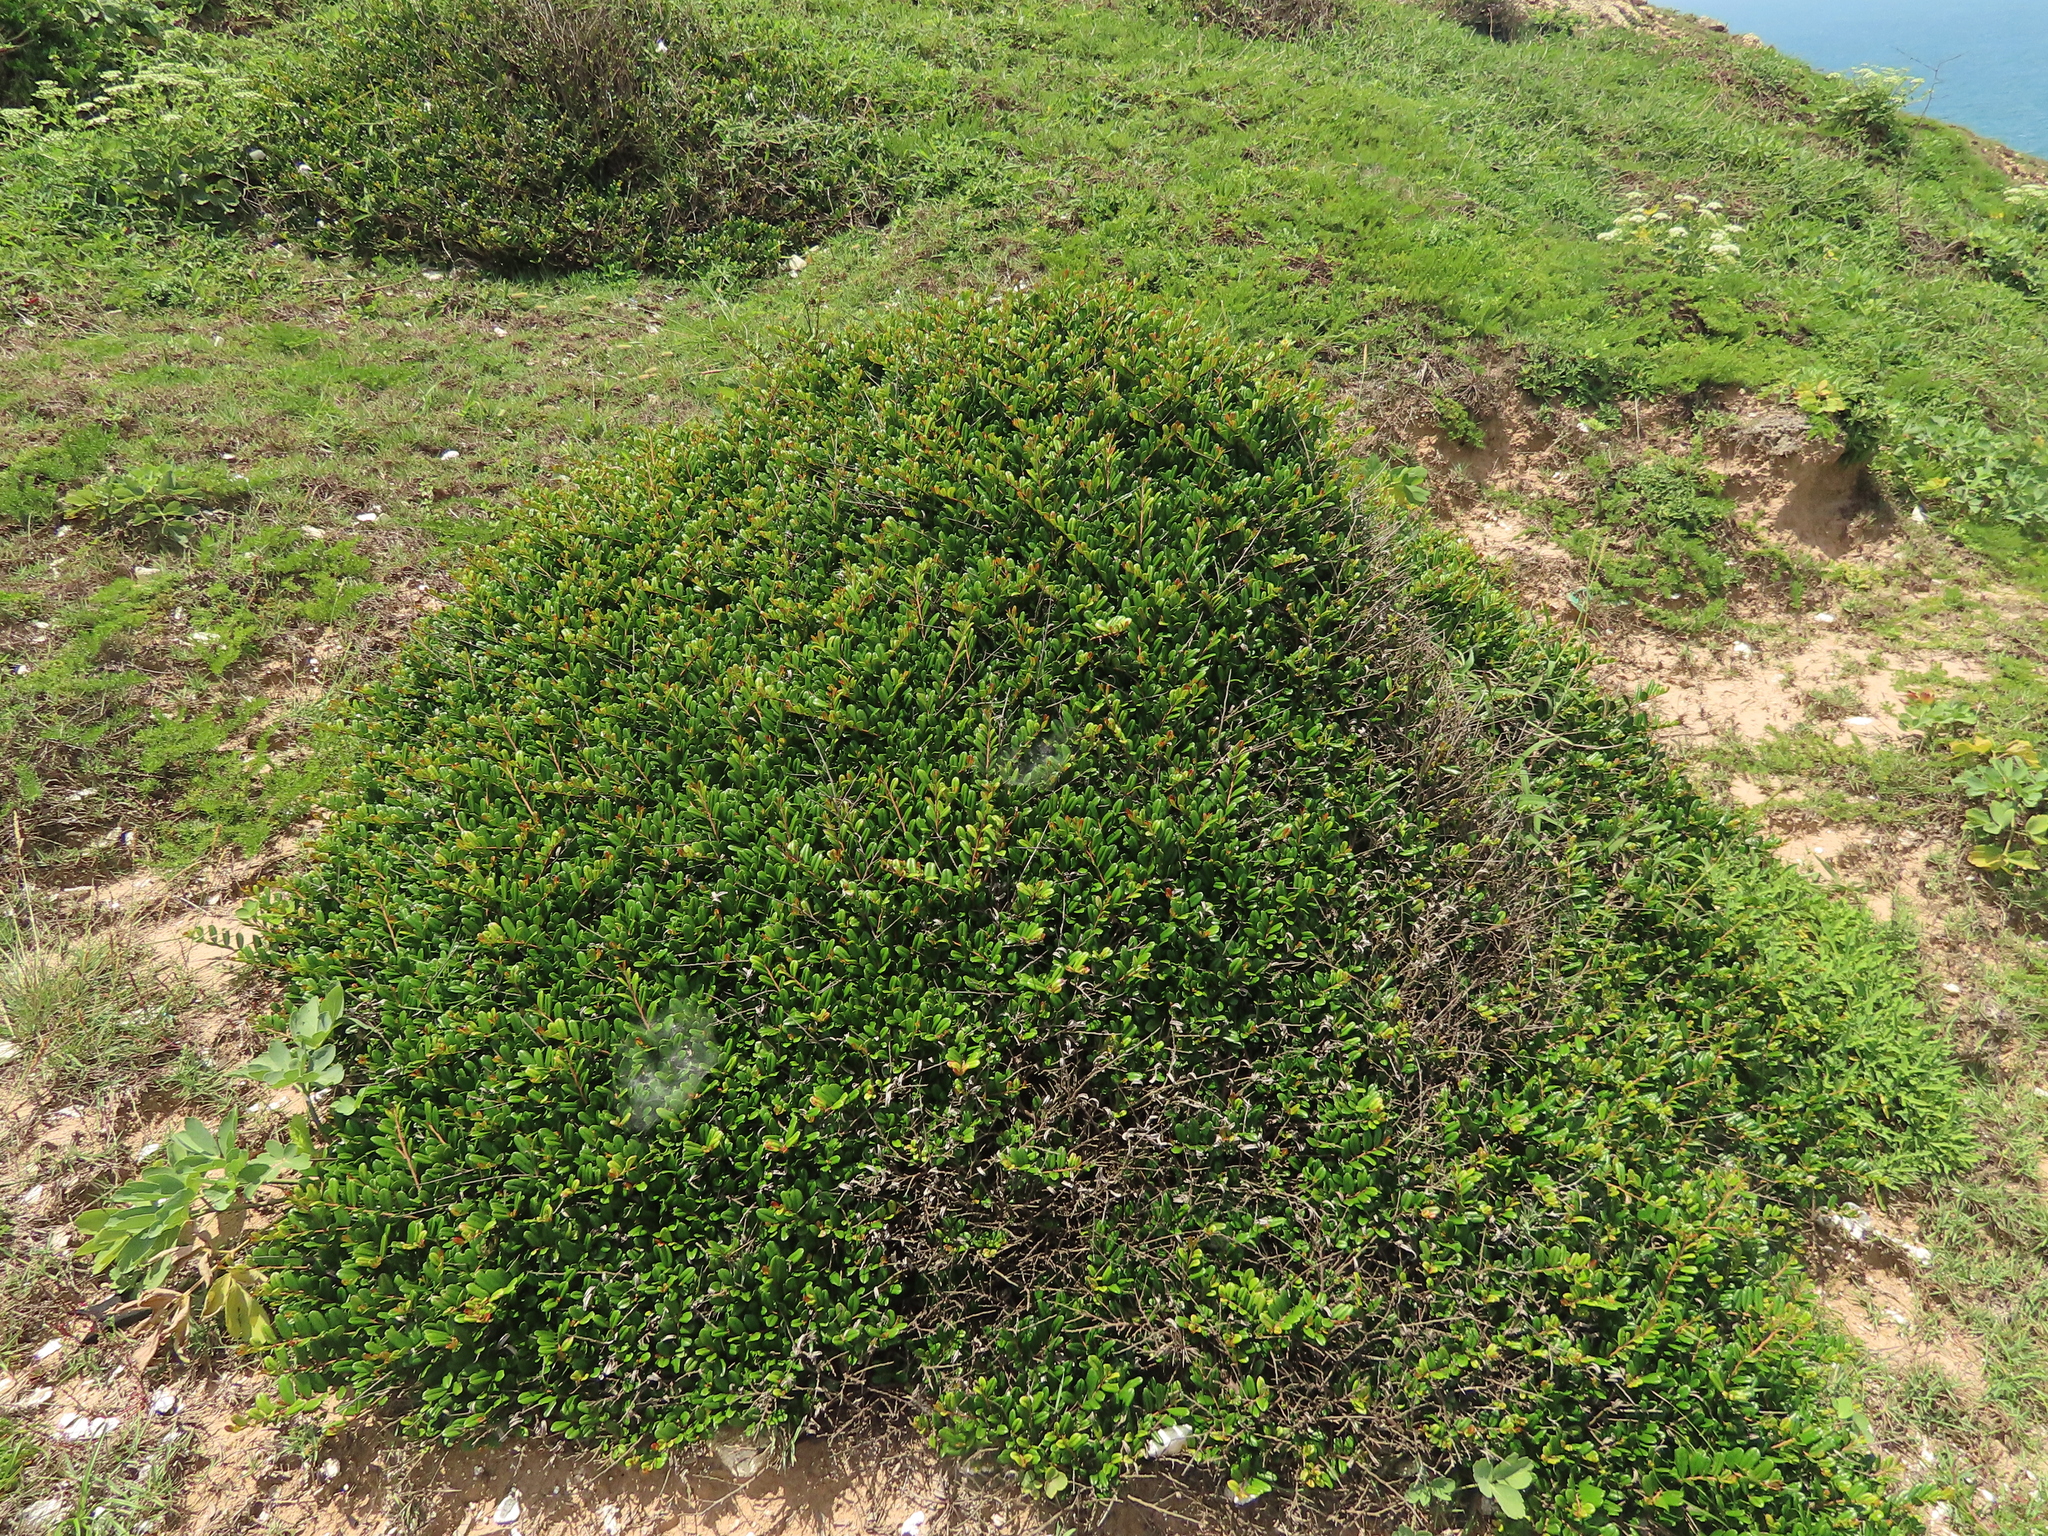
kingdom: Plantae
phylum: Tracheophyta
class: Magnoliopsida
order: Ericales
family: Pentaphylacaceae
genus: Eurya
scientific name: Eurya emarginata
